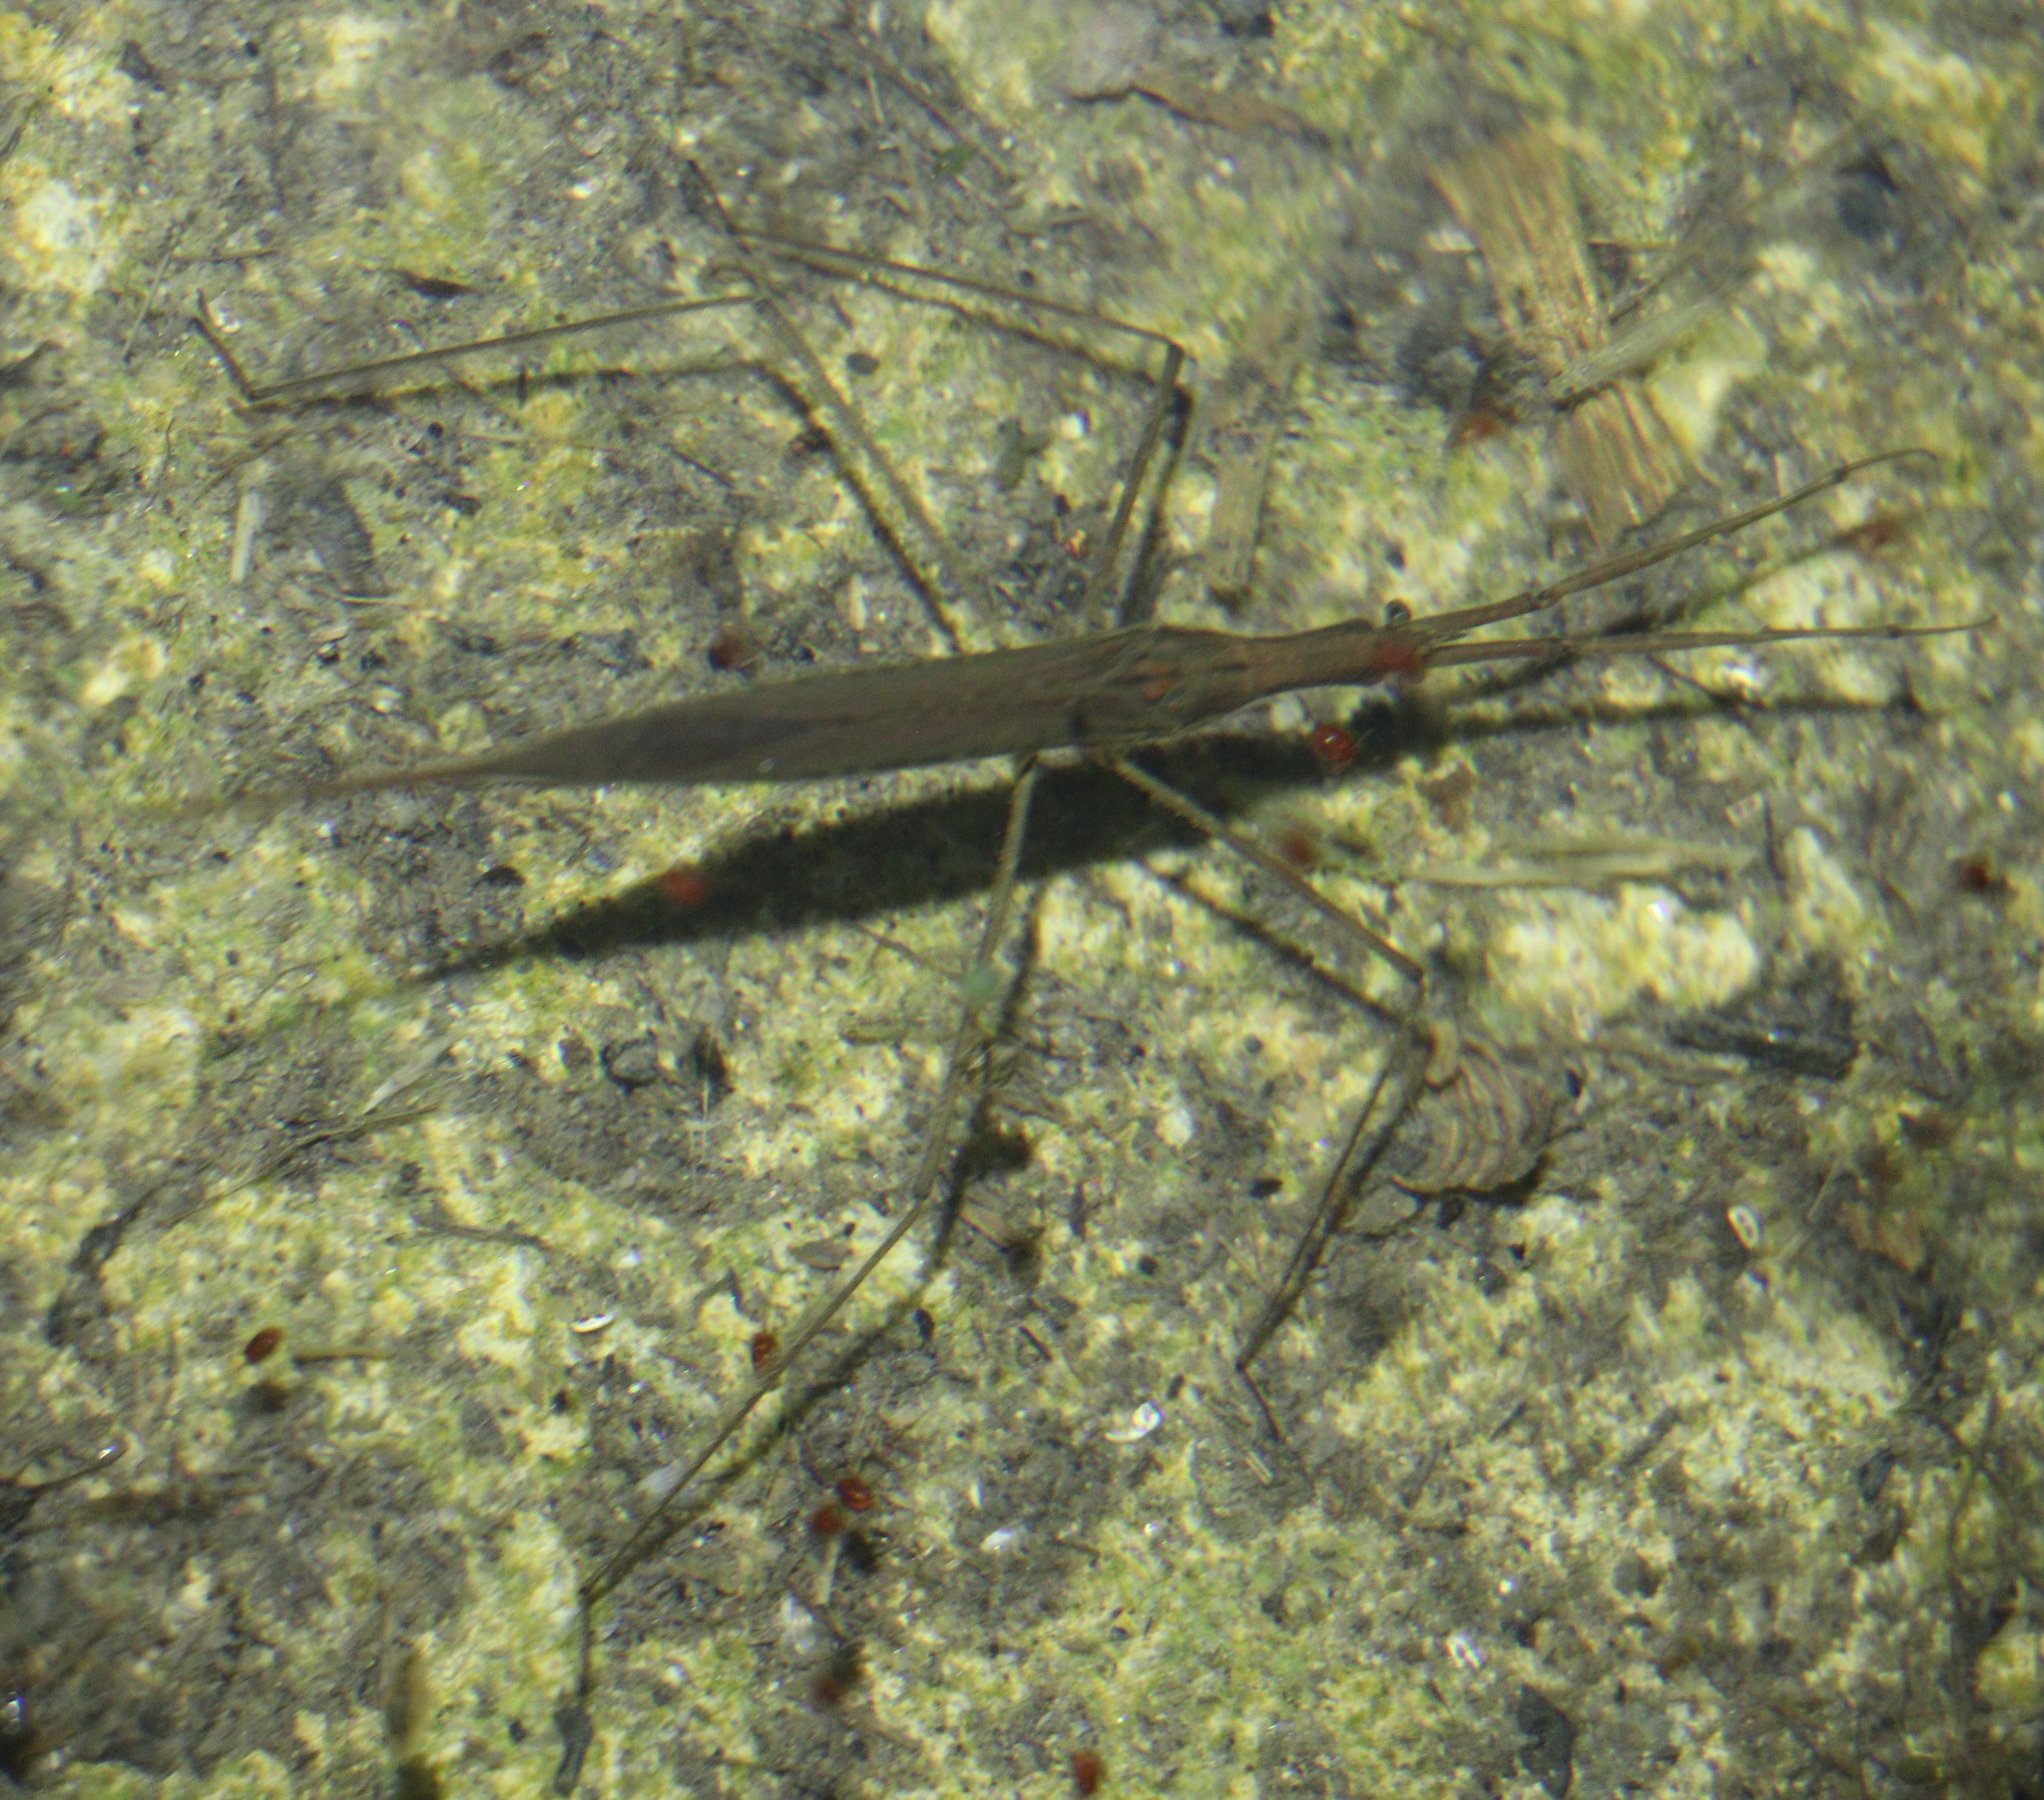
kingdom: Animalia
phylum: Arthropoda
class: Insecta
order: Hemiptera
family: Nepidae
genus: Ranatra
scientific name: Ranatra linearis
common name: Water stick insect
